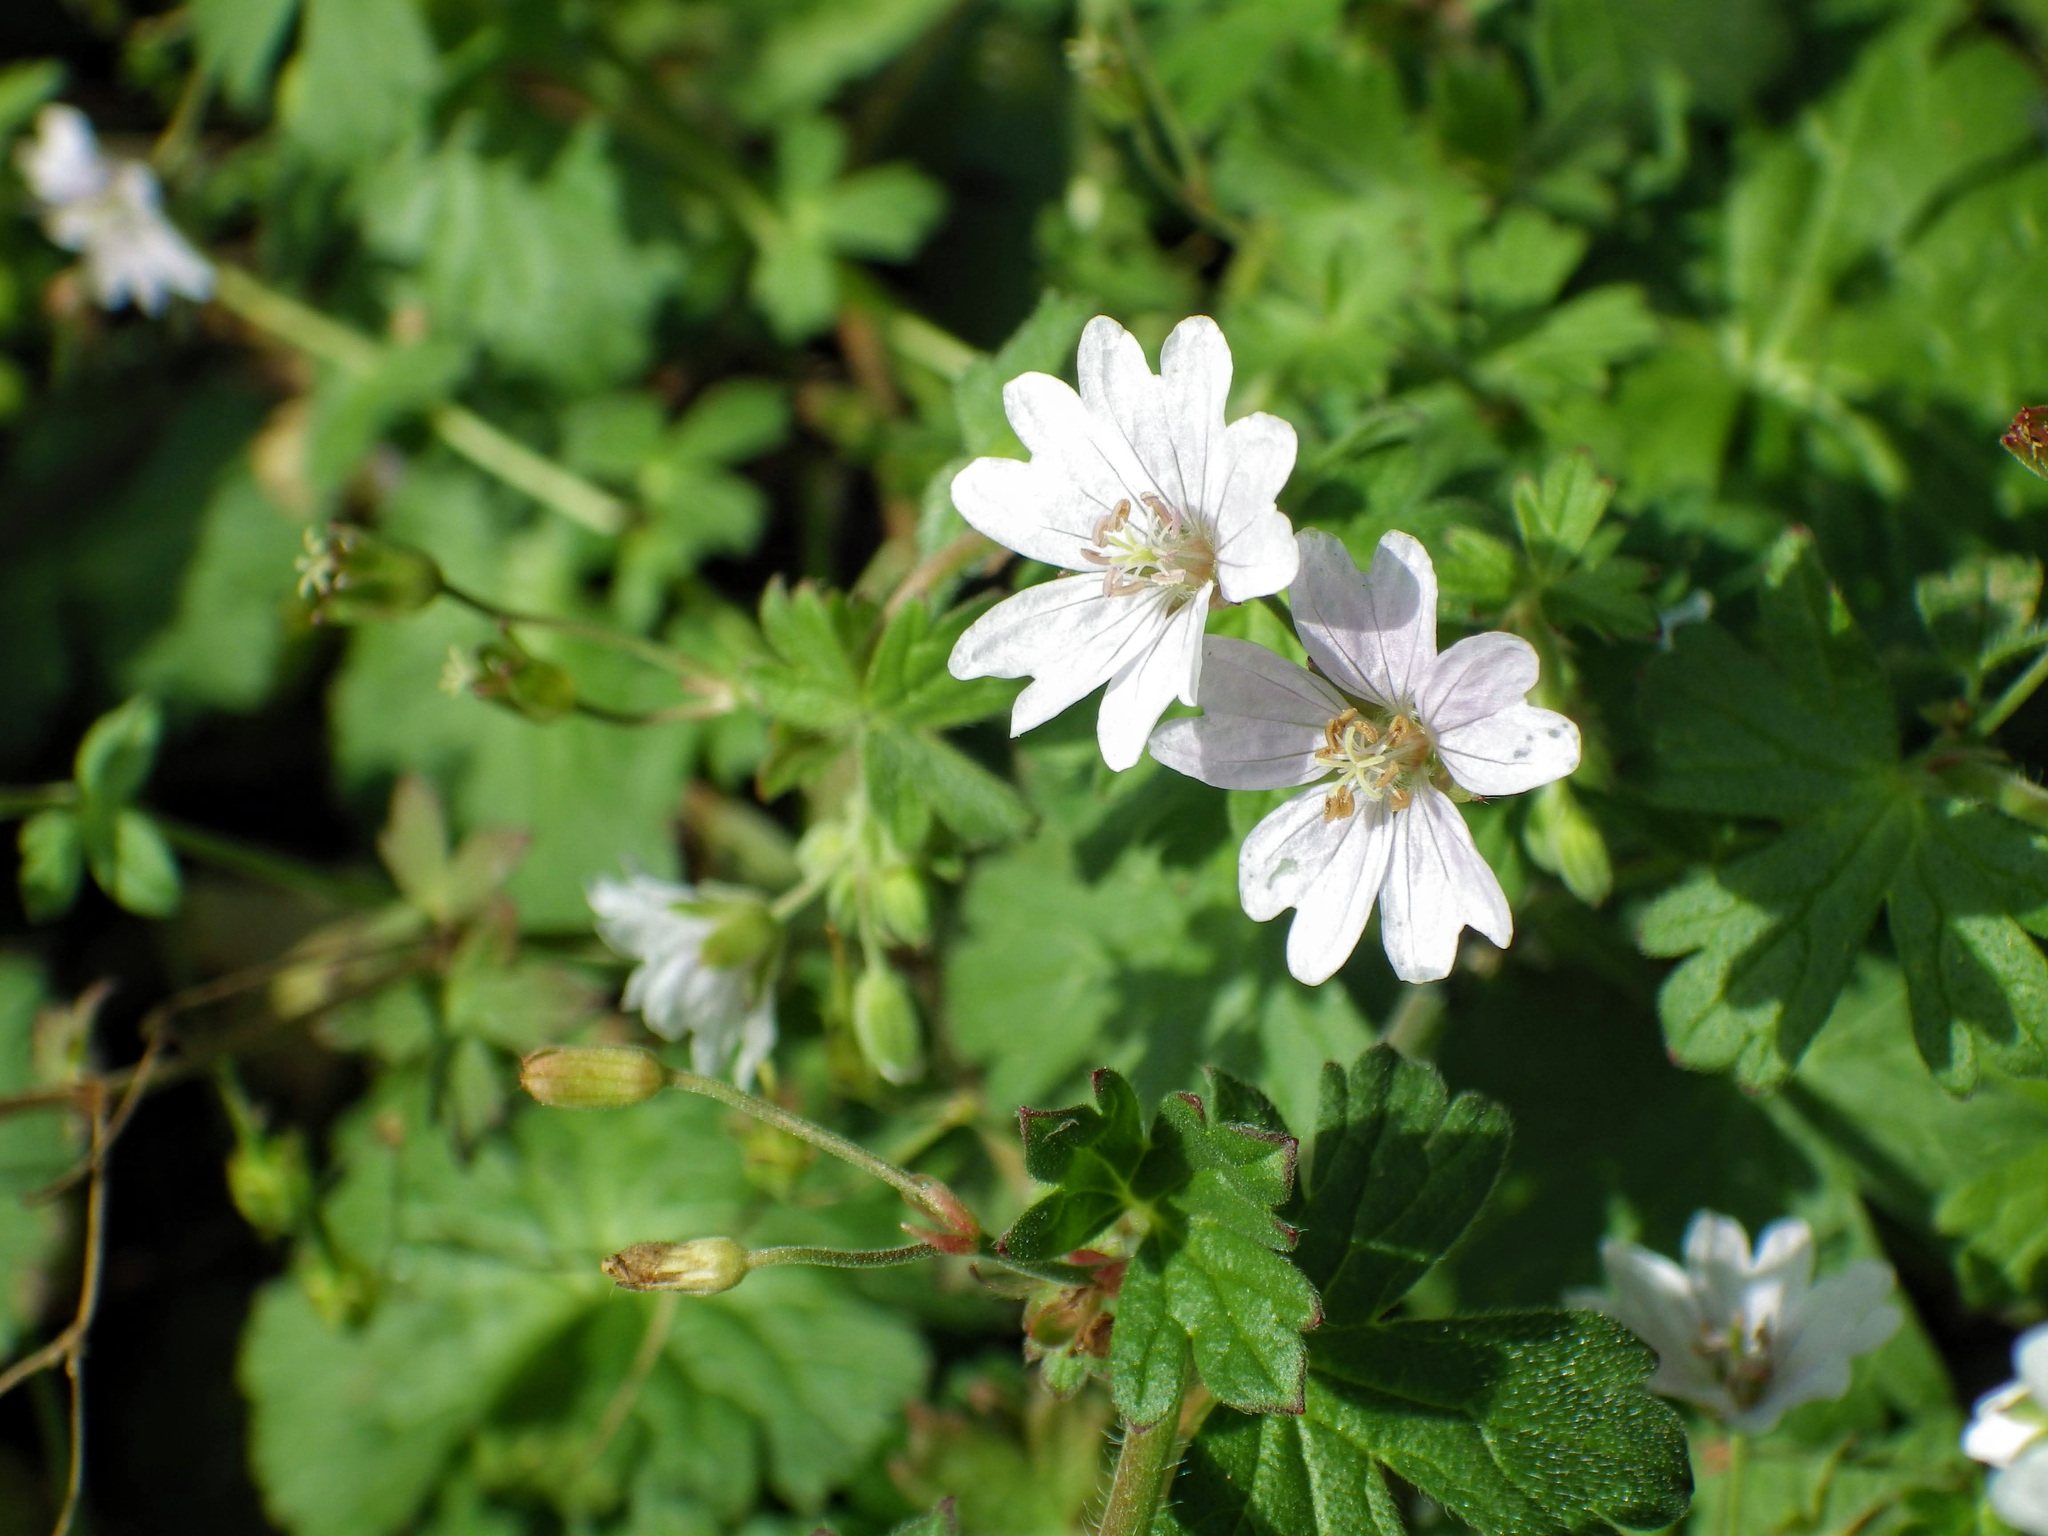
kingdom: Plantae
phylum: Tracheophyta
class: Magnoliopsida
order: Geraniales
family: Geraniaceae
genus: Geranium
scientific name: Geranium pyrenaicum
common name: Hedgerow crane's-bill
